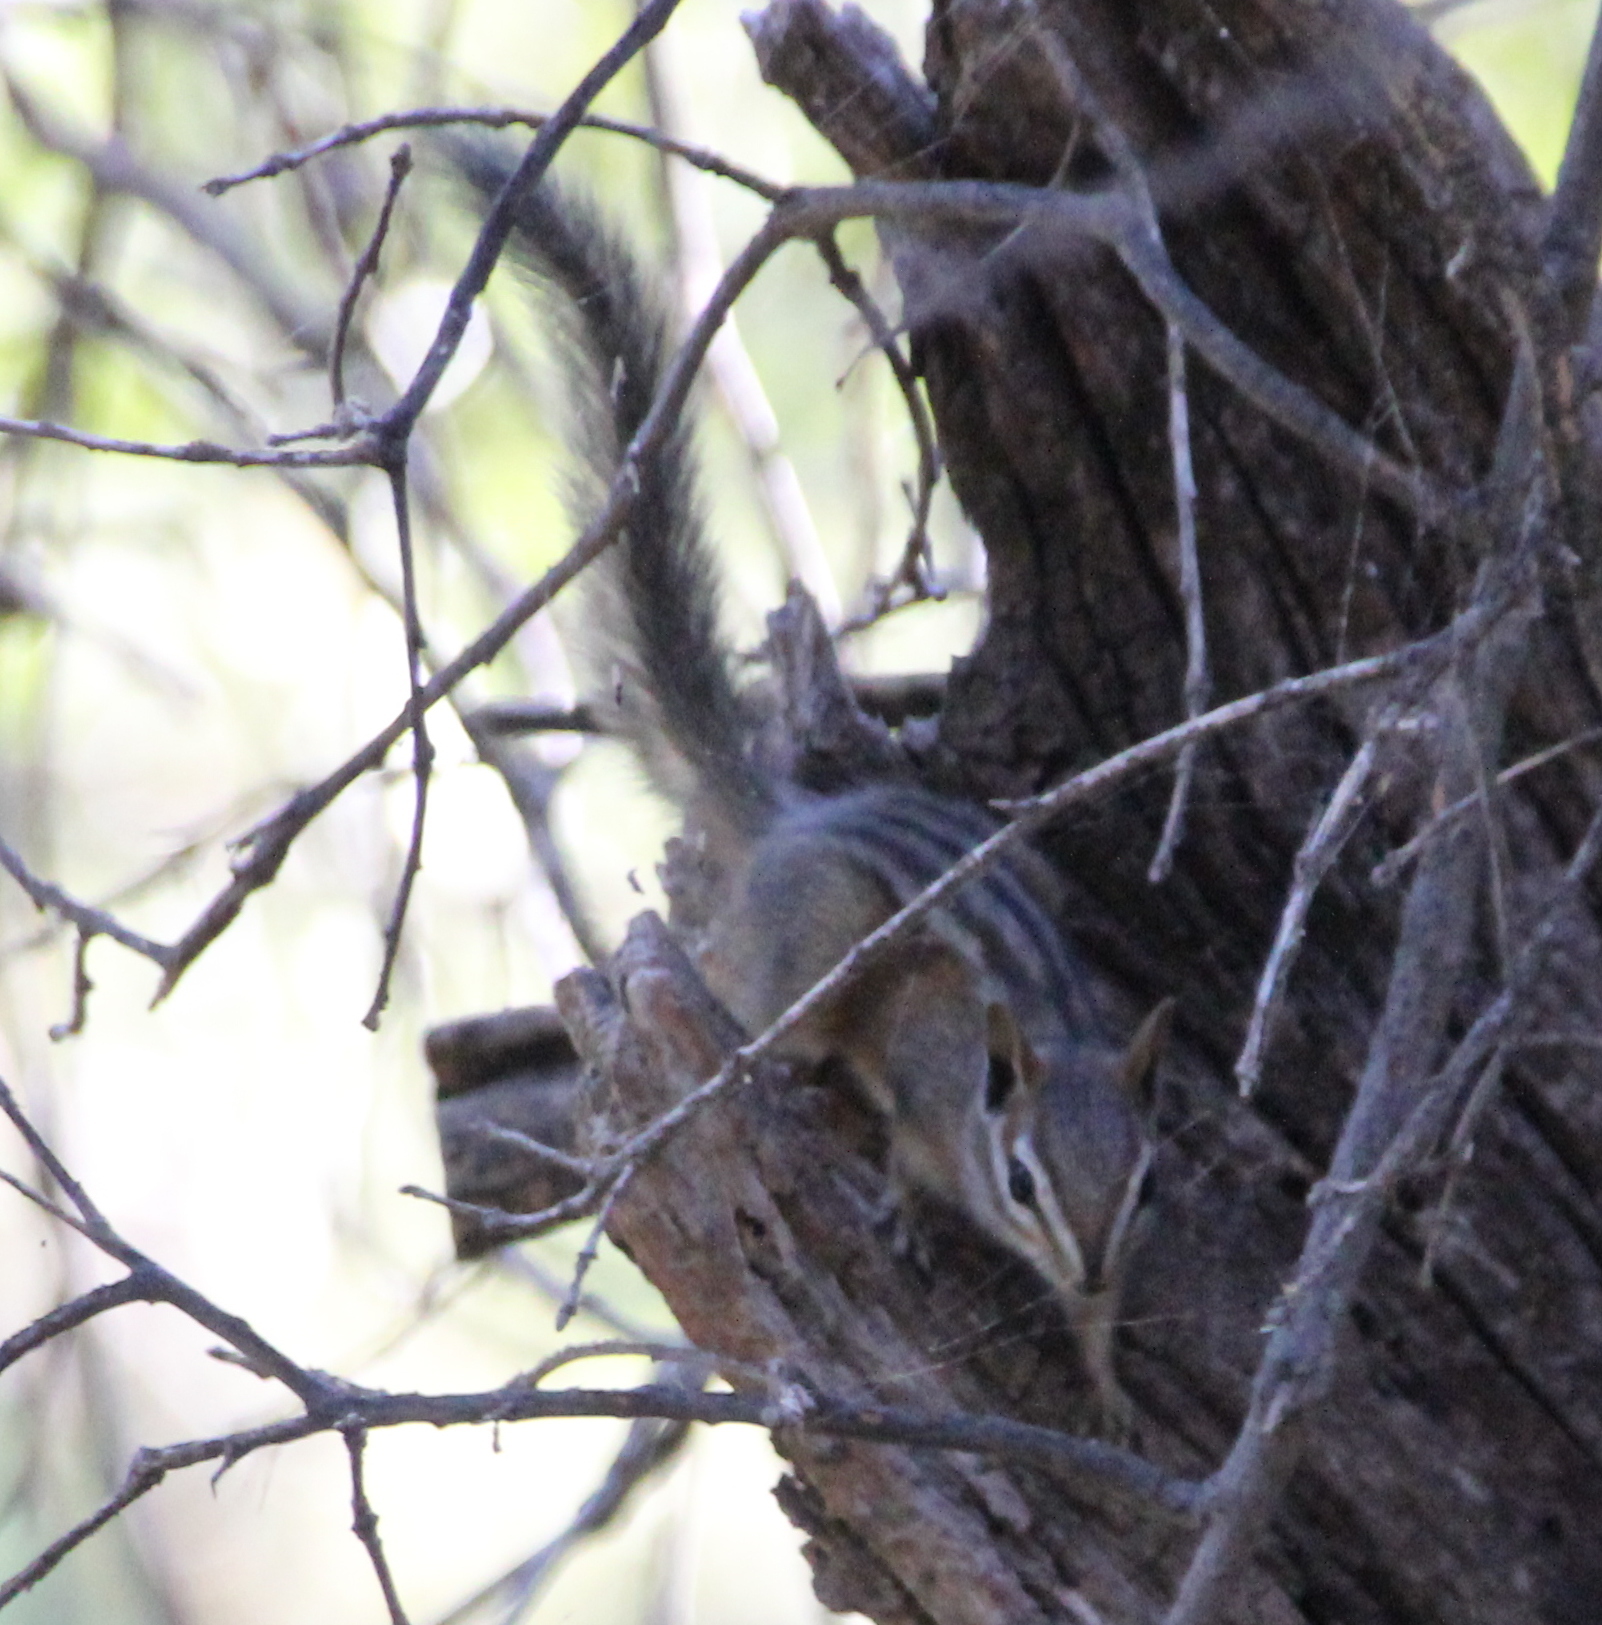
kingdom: Animalia
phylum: Chordata
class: Mammalia
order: Rodentia
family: Sciuridae
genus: Tamias
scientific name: Tamias merriami
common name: Merriam's chipmunk
